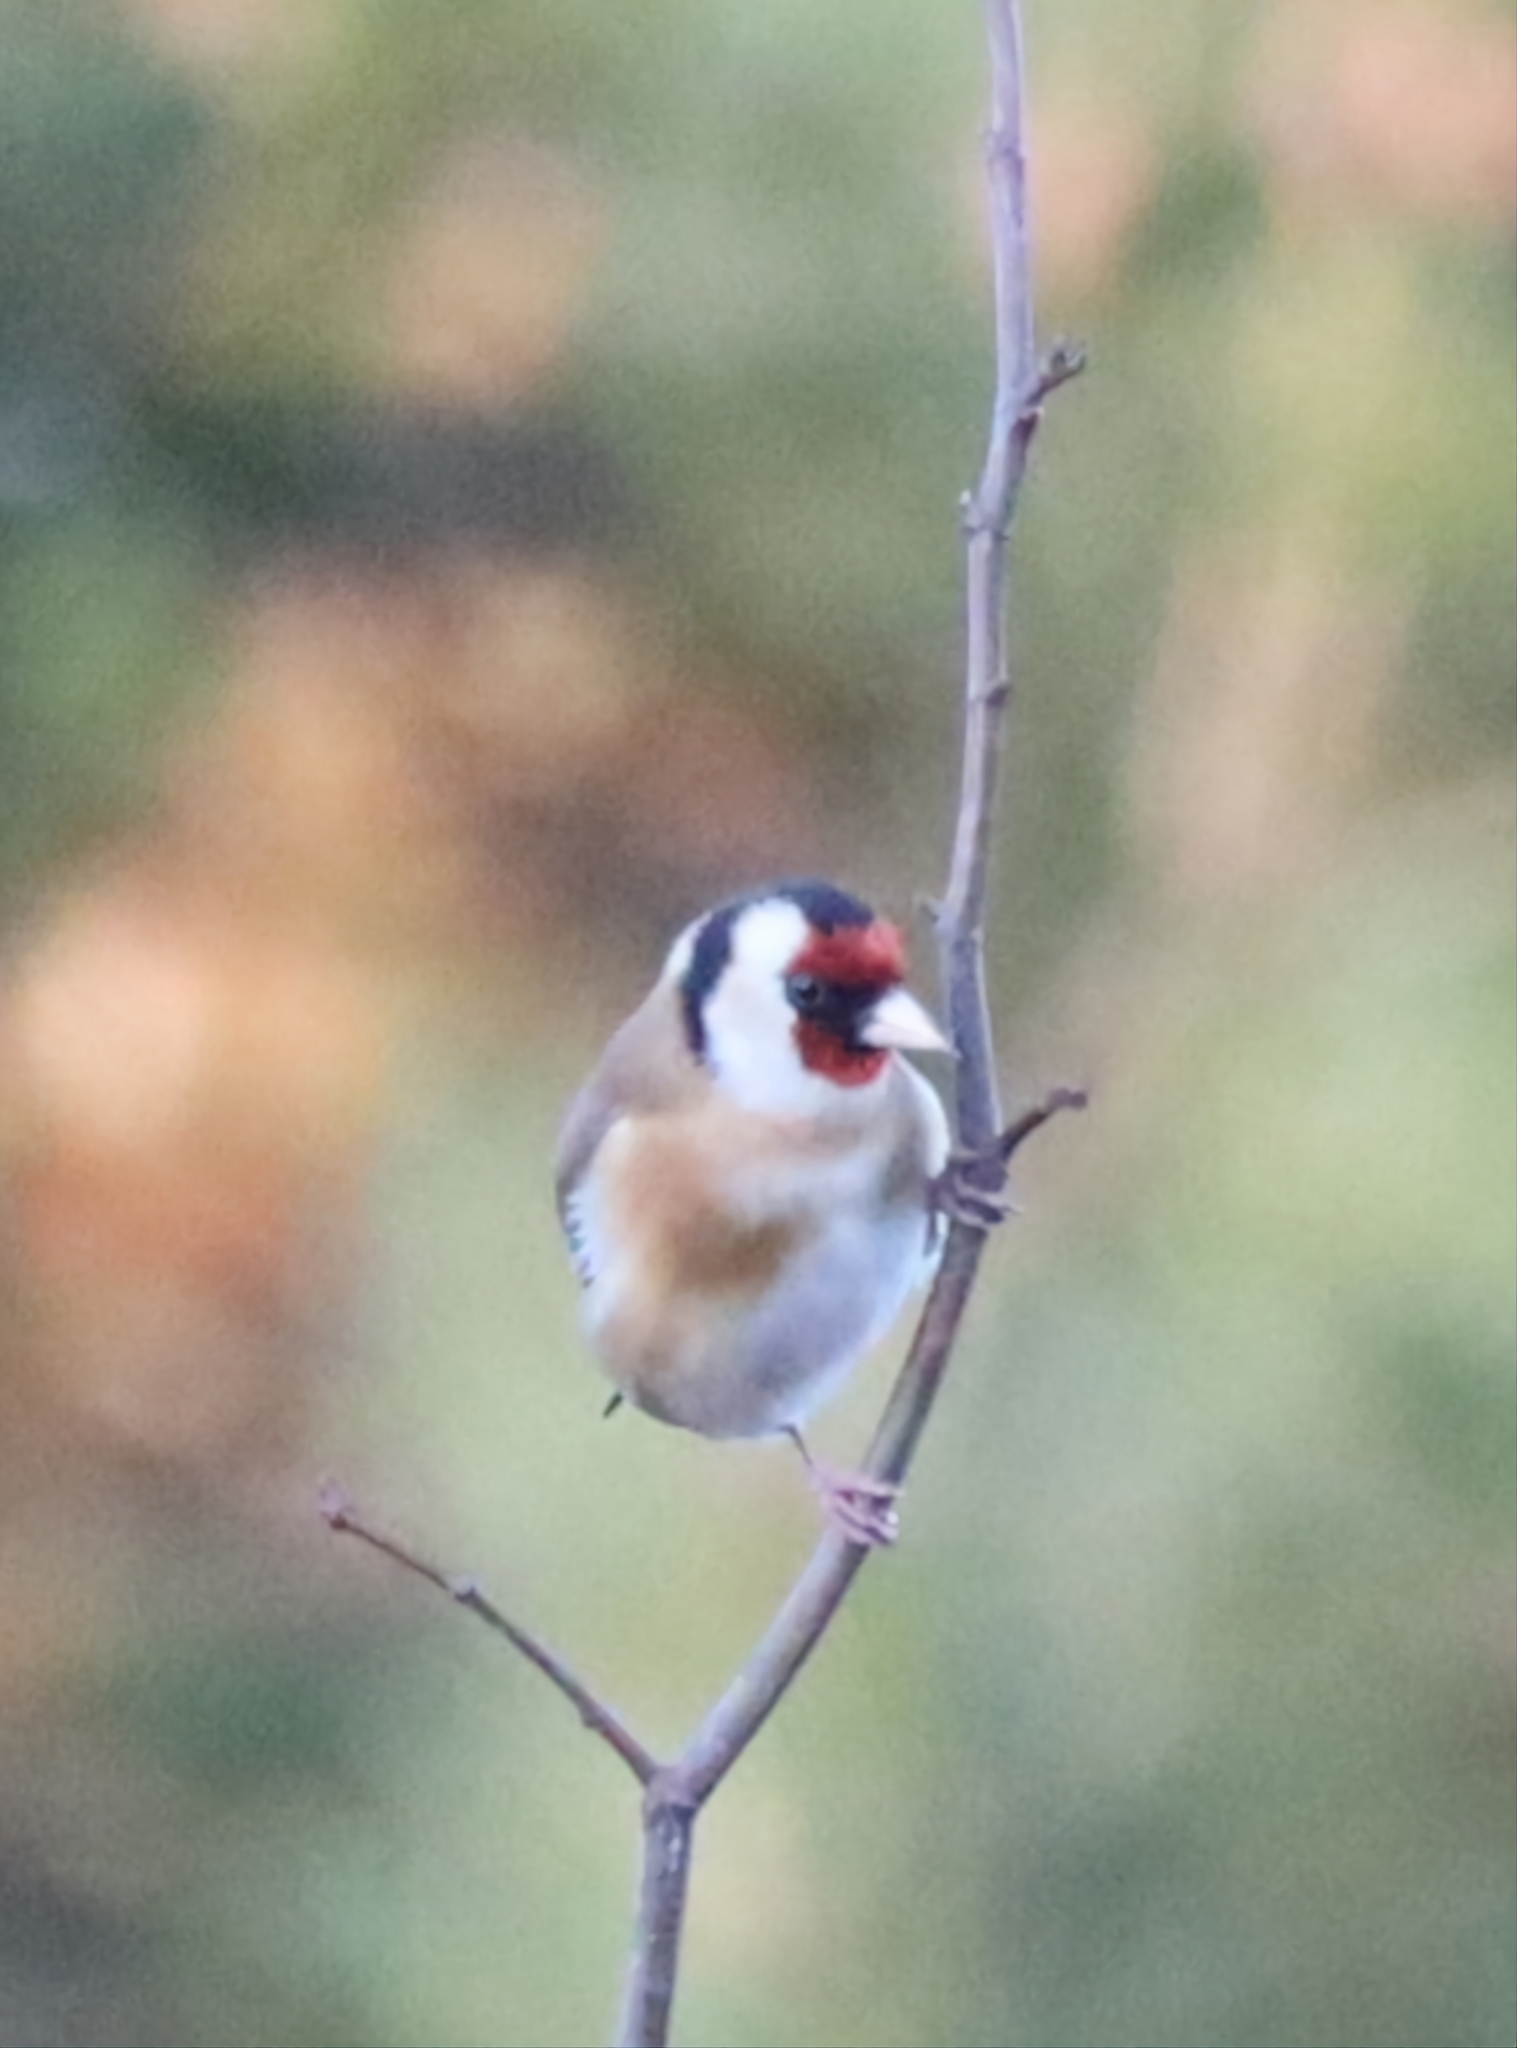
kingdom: Animalia
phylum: Chordata
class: Aves
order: Passeriformes
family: Fringillidae
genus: Carduelis
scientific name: Carduelis carduelis
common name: European goldfinch
